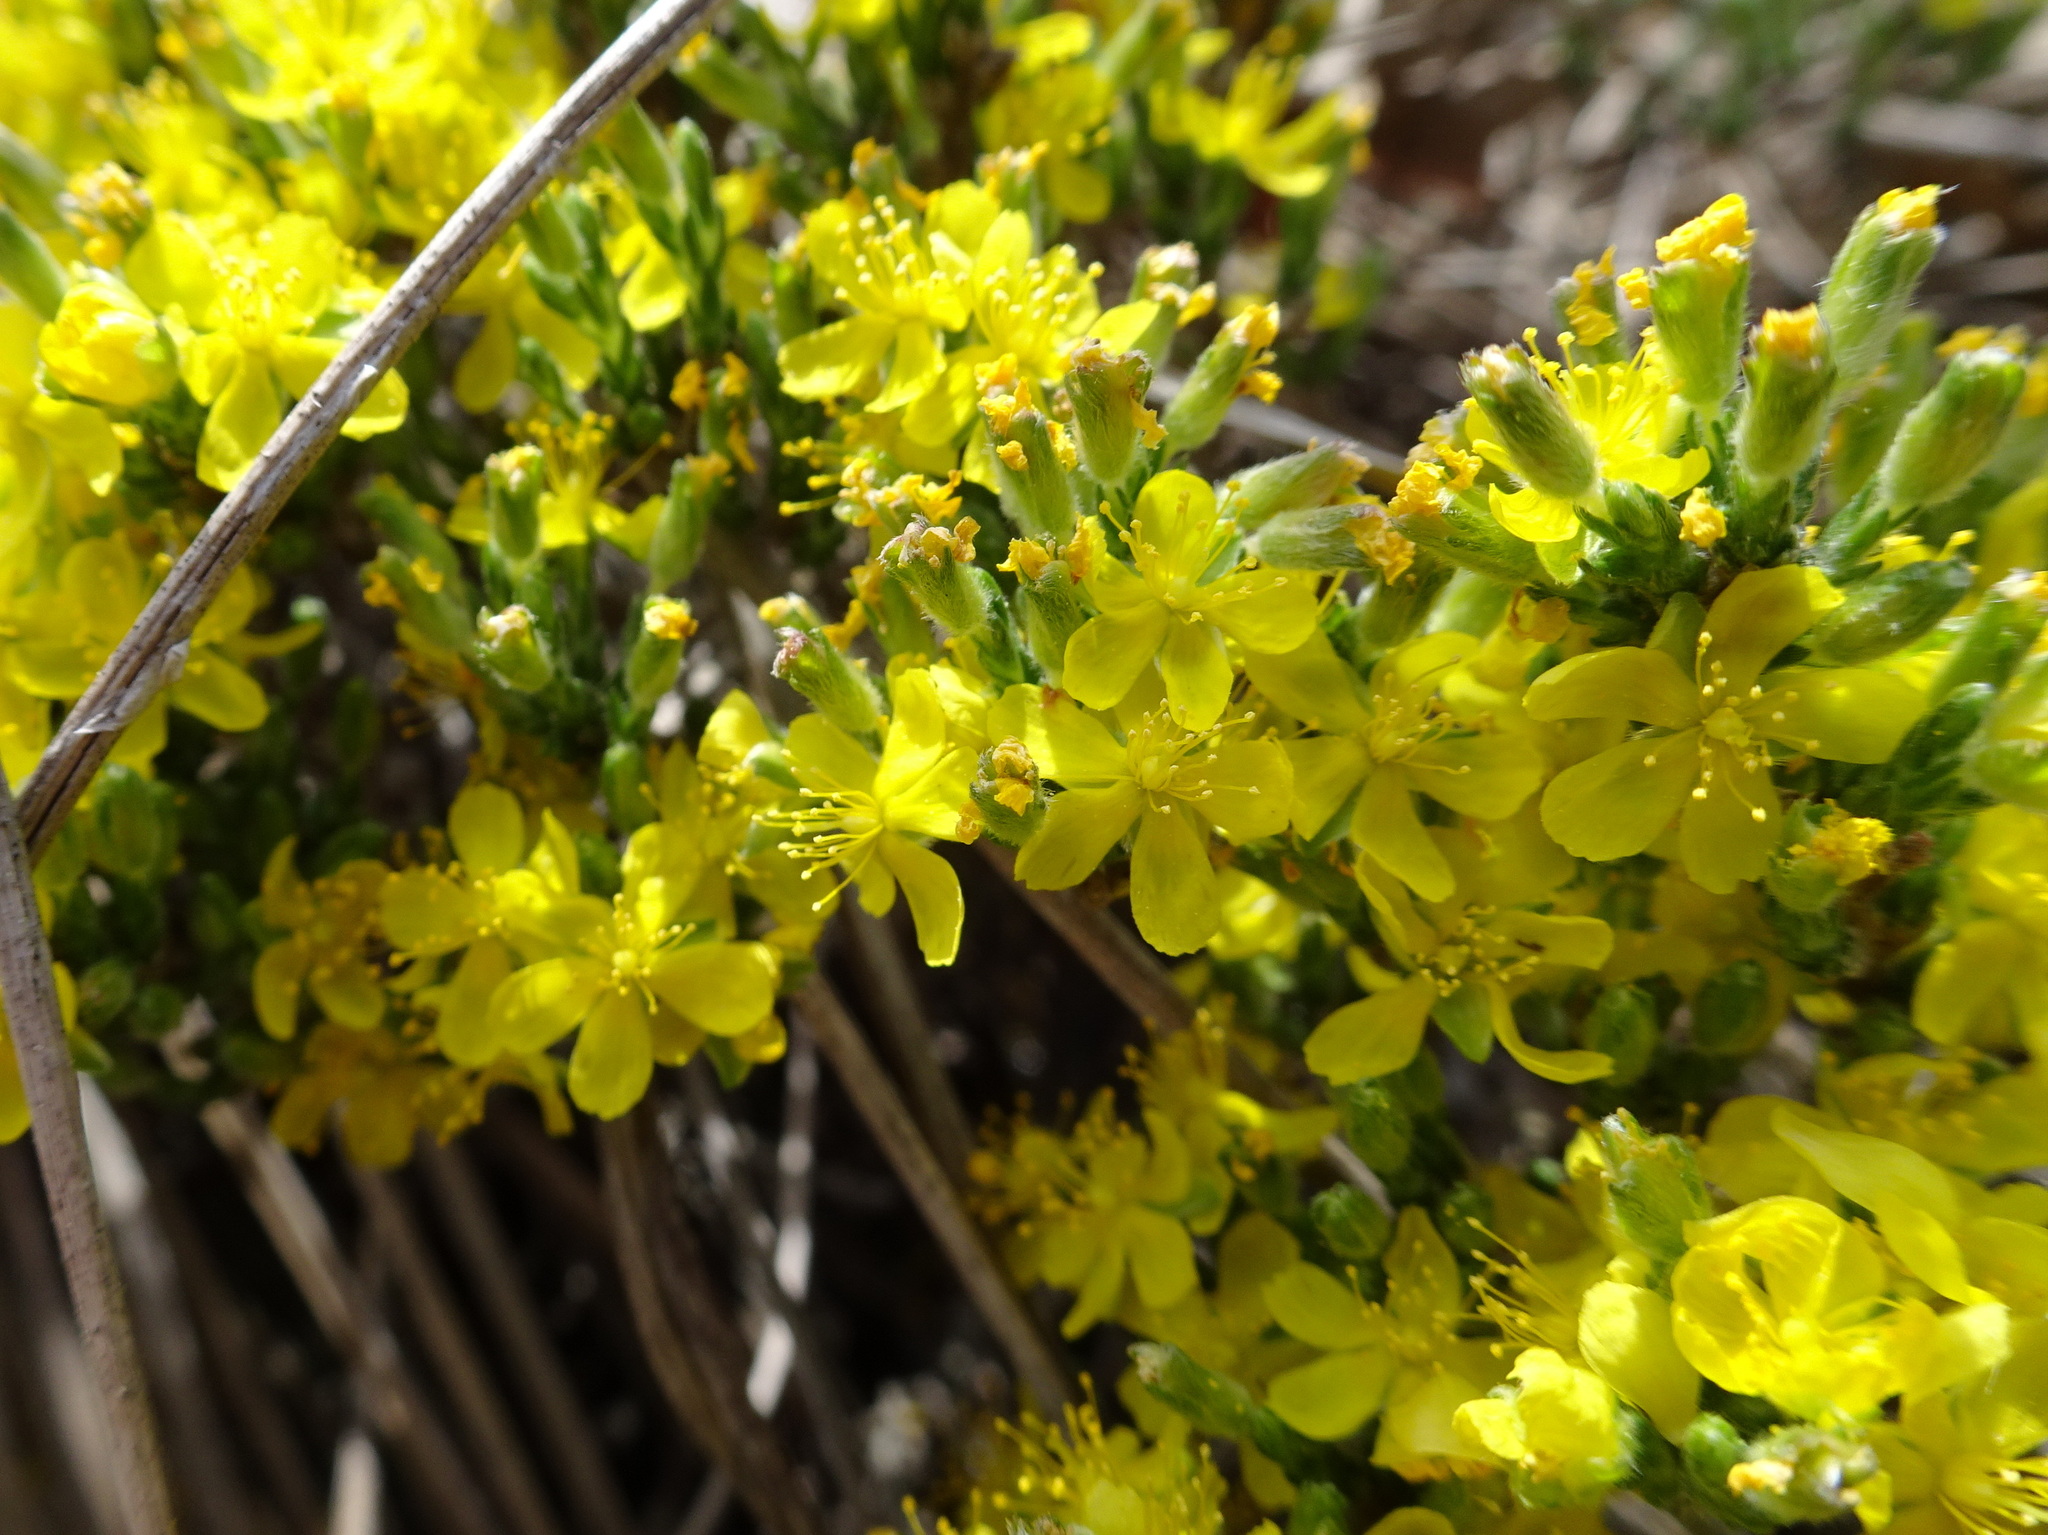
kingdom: Plantae
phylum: Tracheophyta
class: Magnoliopsida
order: Malvales
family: Cistaceae
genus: Hudsonia
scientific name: Hudsonia tomentosa
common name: Beach-heath
